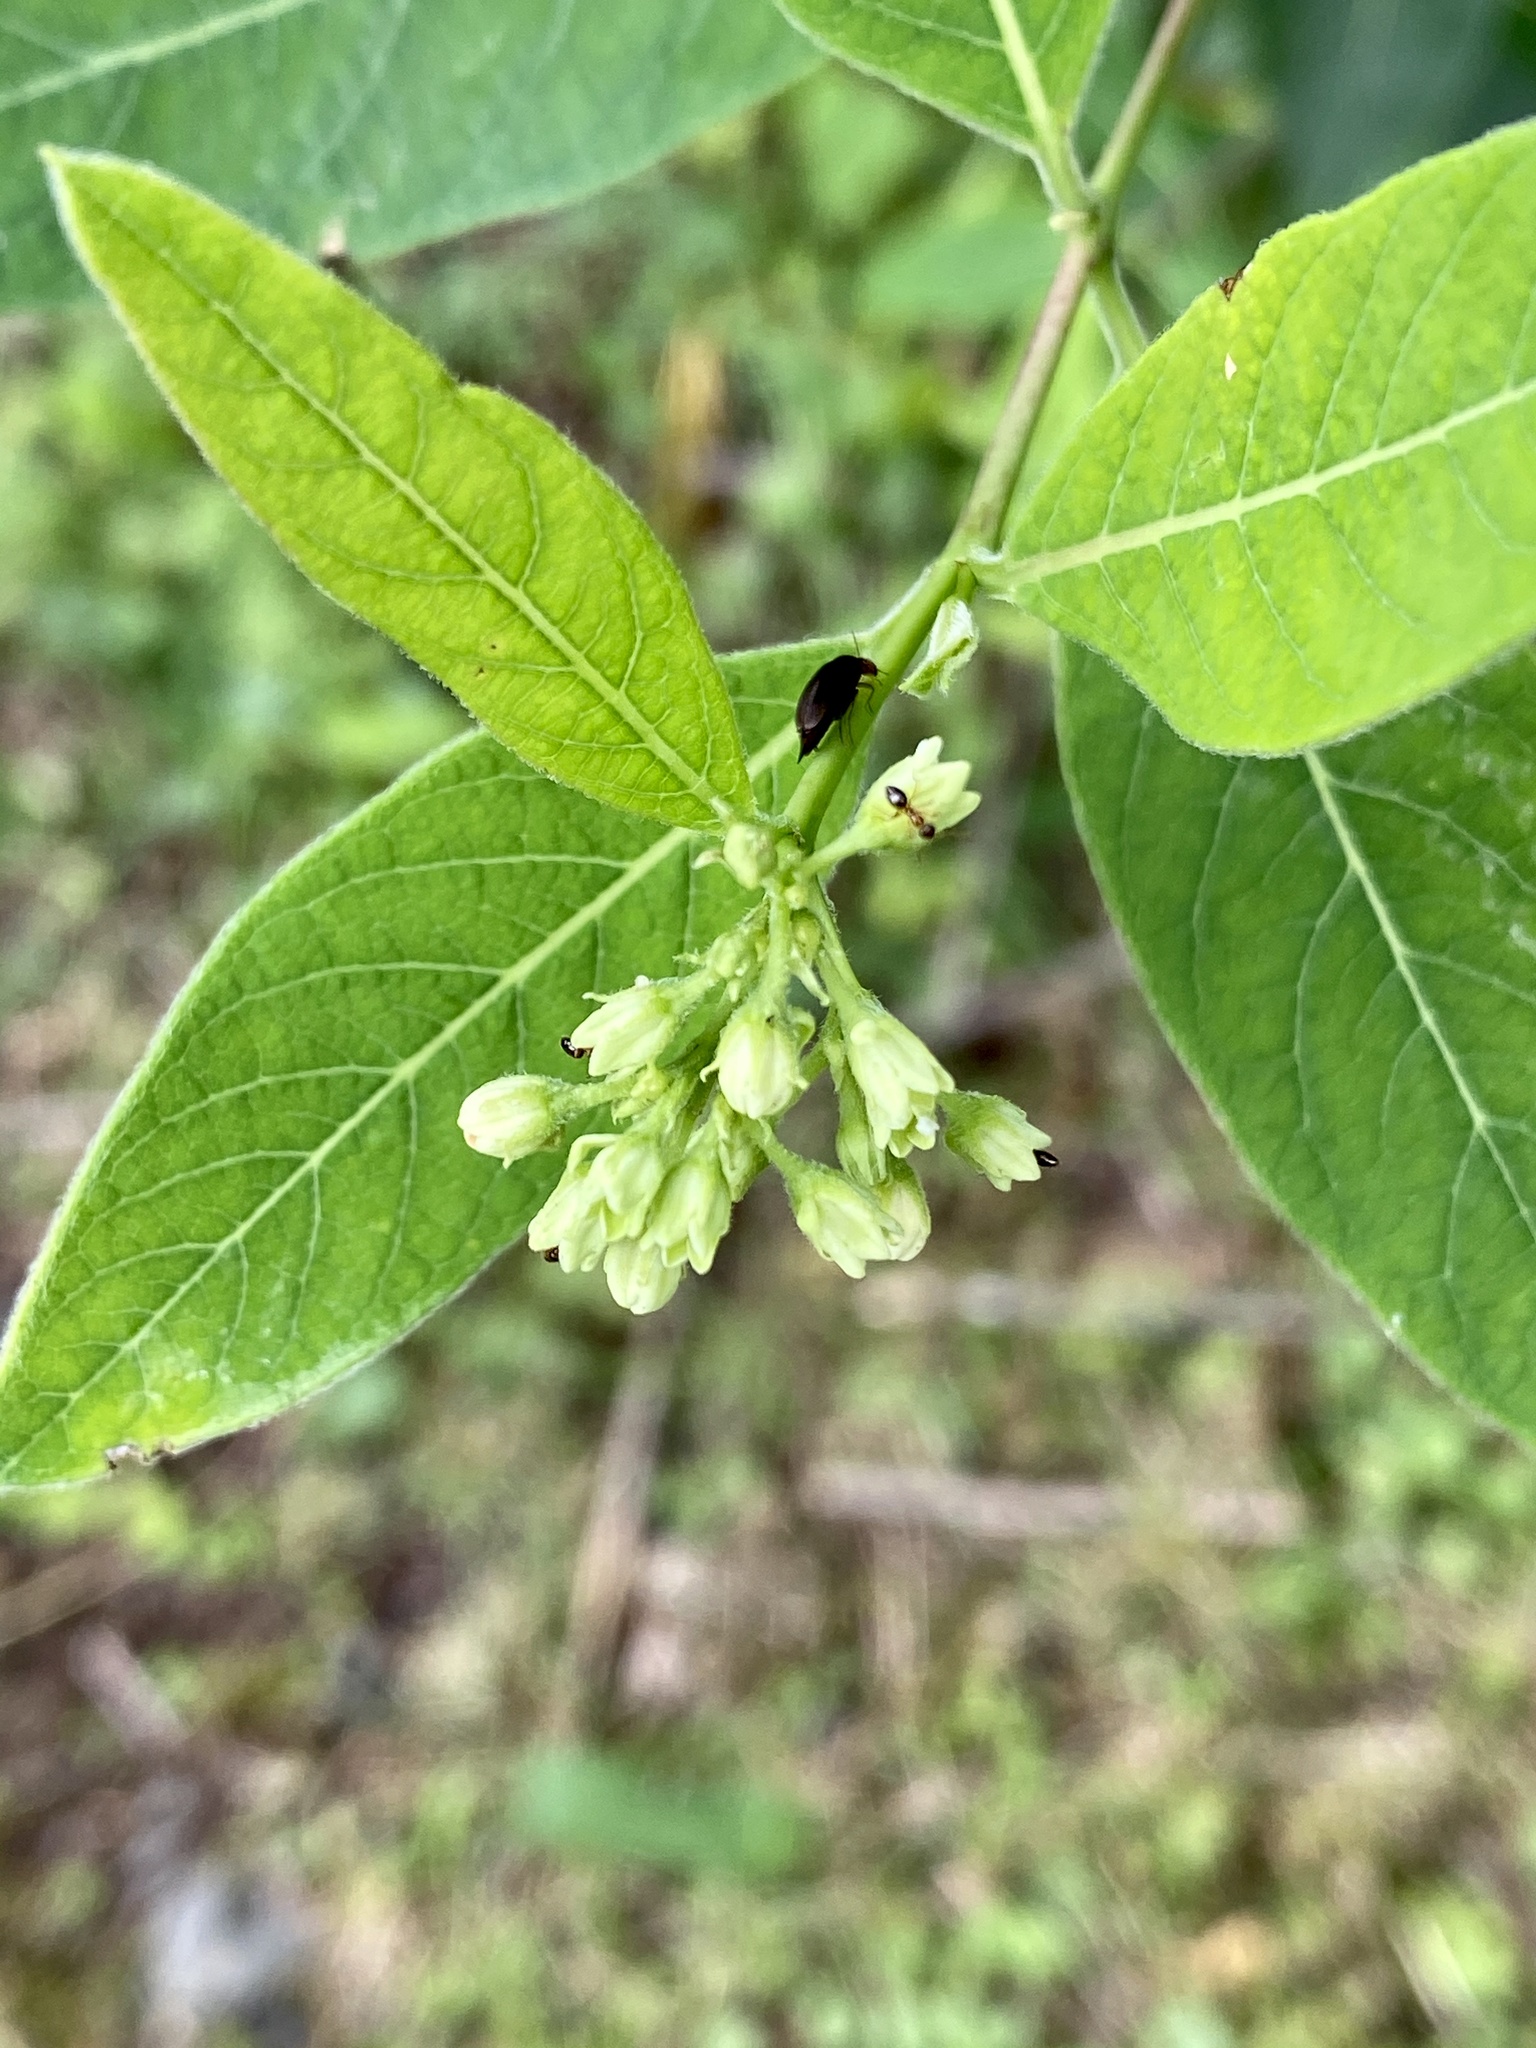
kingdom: Plantae
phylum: Tracheophyta
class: Magnoliopsida
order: Gentianales
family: Apocynaceae
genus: Apocynum
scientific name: Apocynum cannabinum
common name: Hemp dogbane
